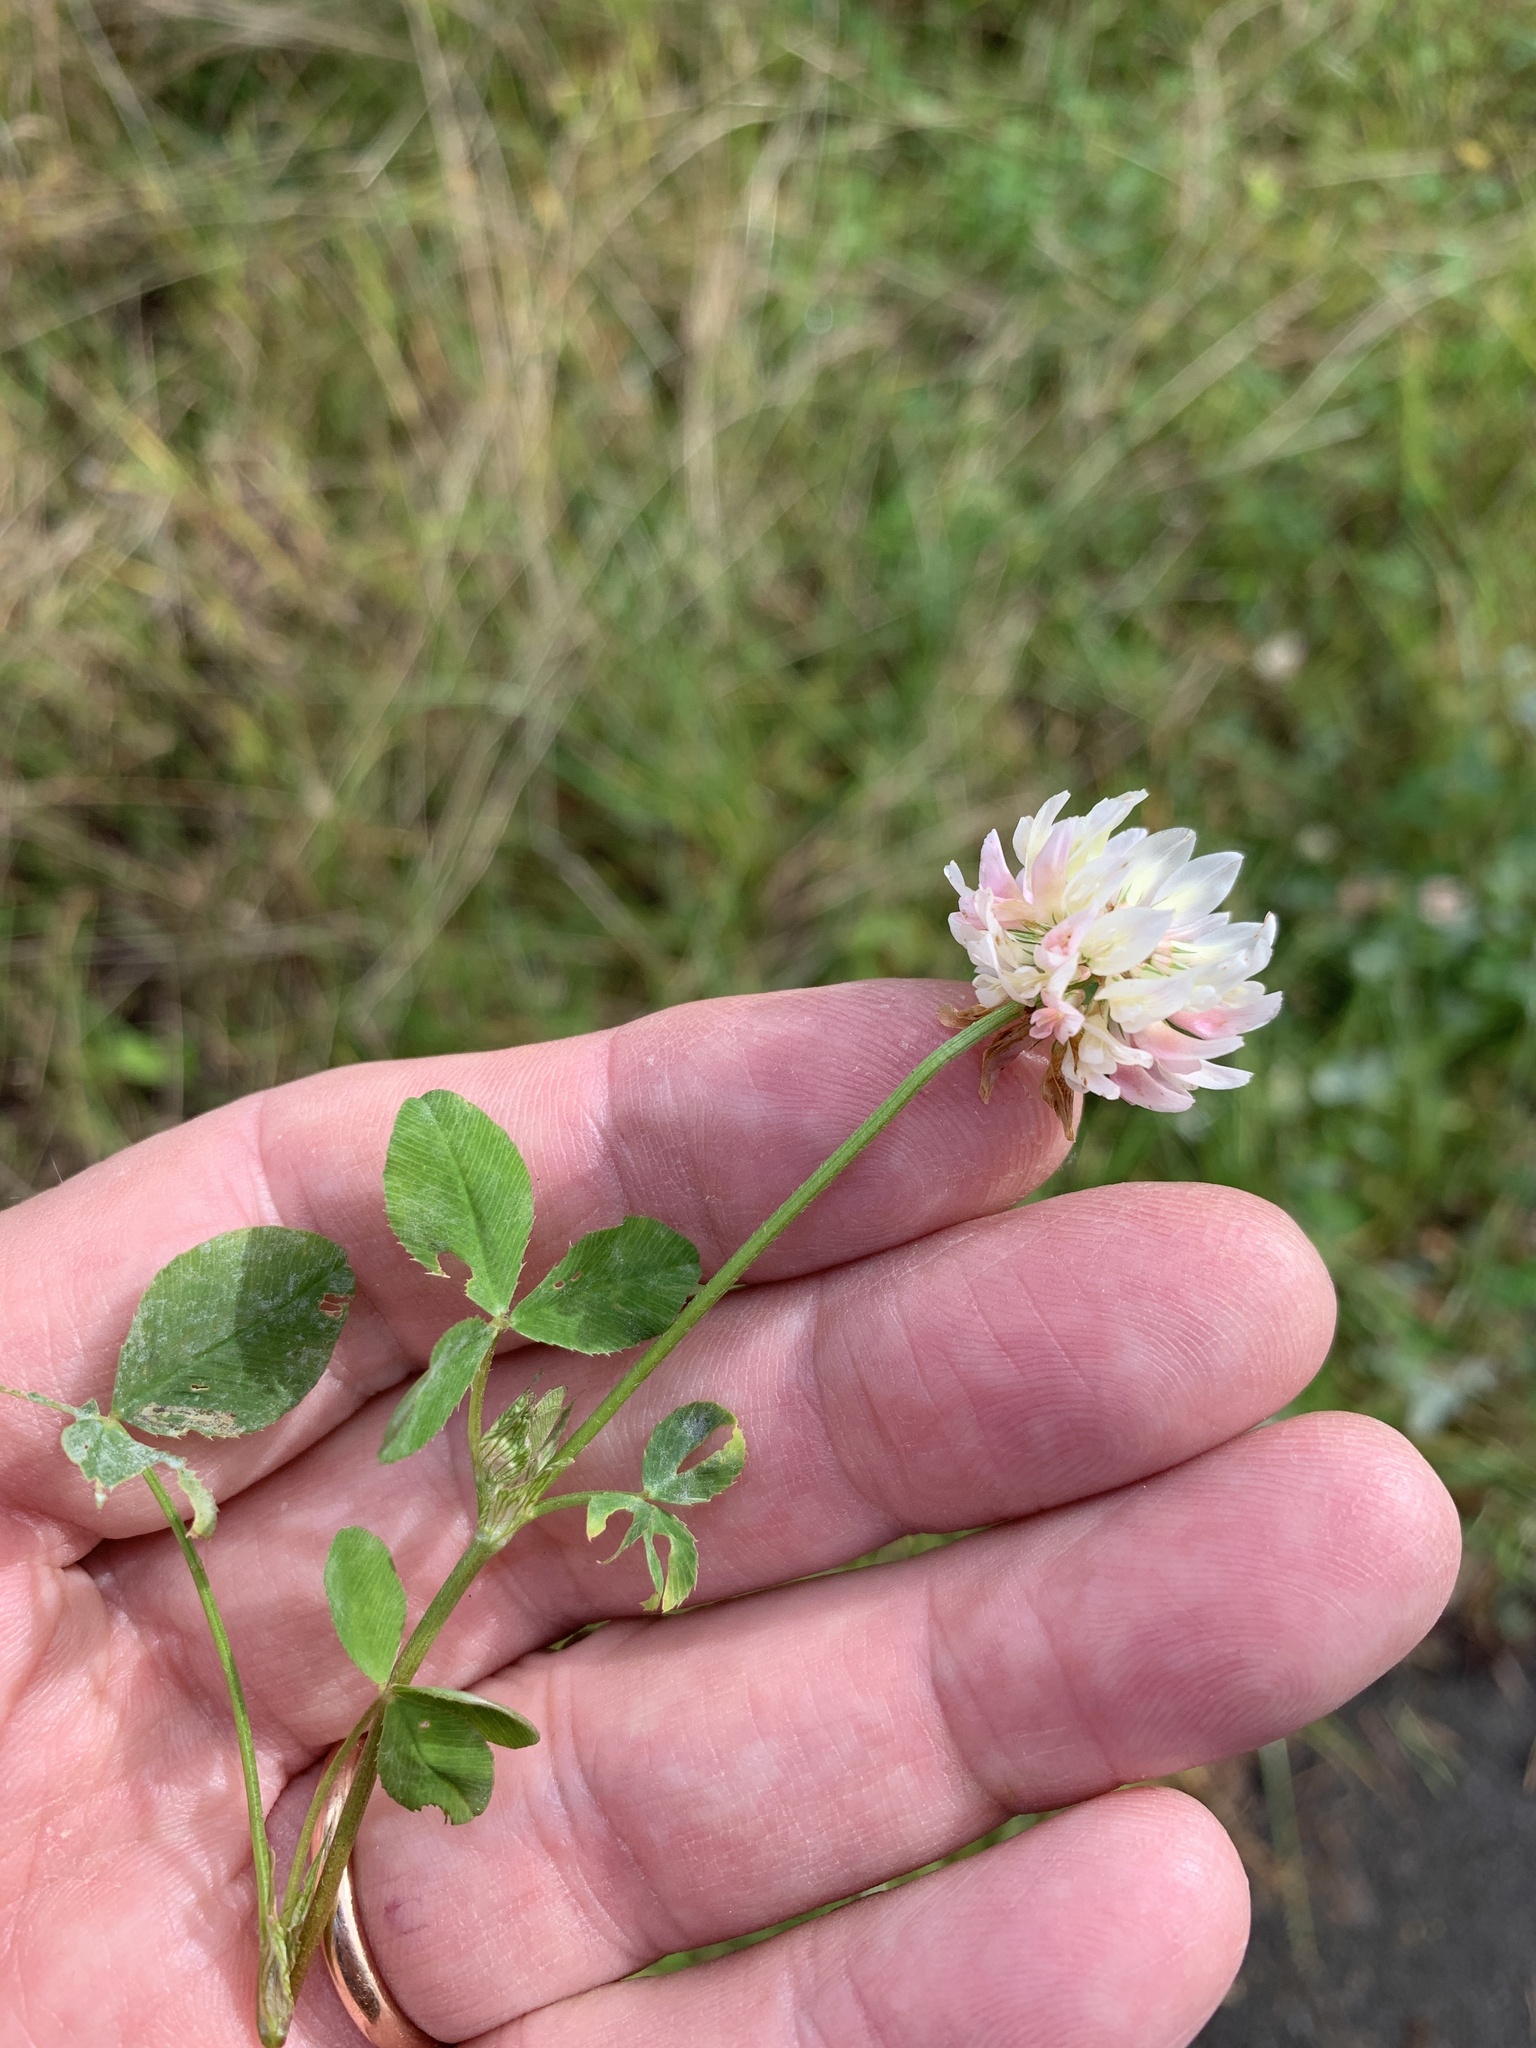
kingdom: Plantae
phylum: Tracheophyta
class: Magnoliopsida
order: Fabales
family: Fabaceae
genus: Trifolium
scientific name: Trifolium hybridum
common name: Alsike clover
